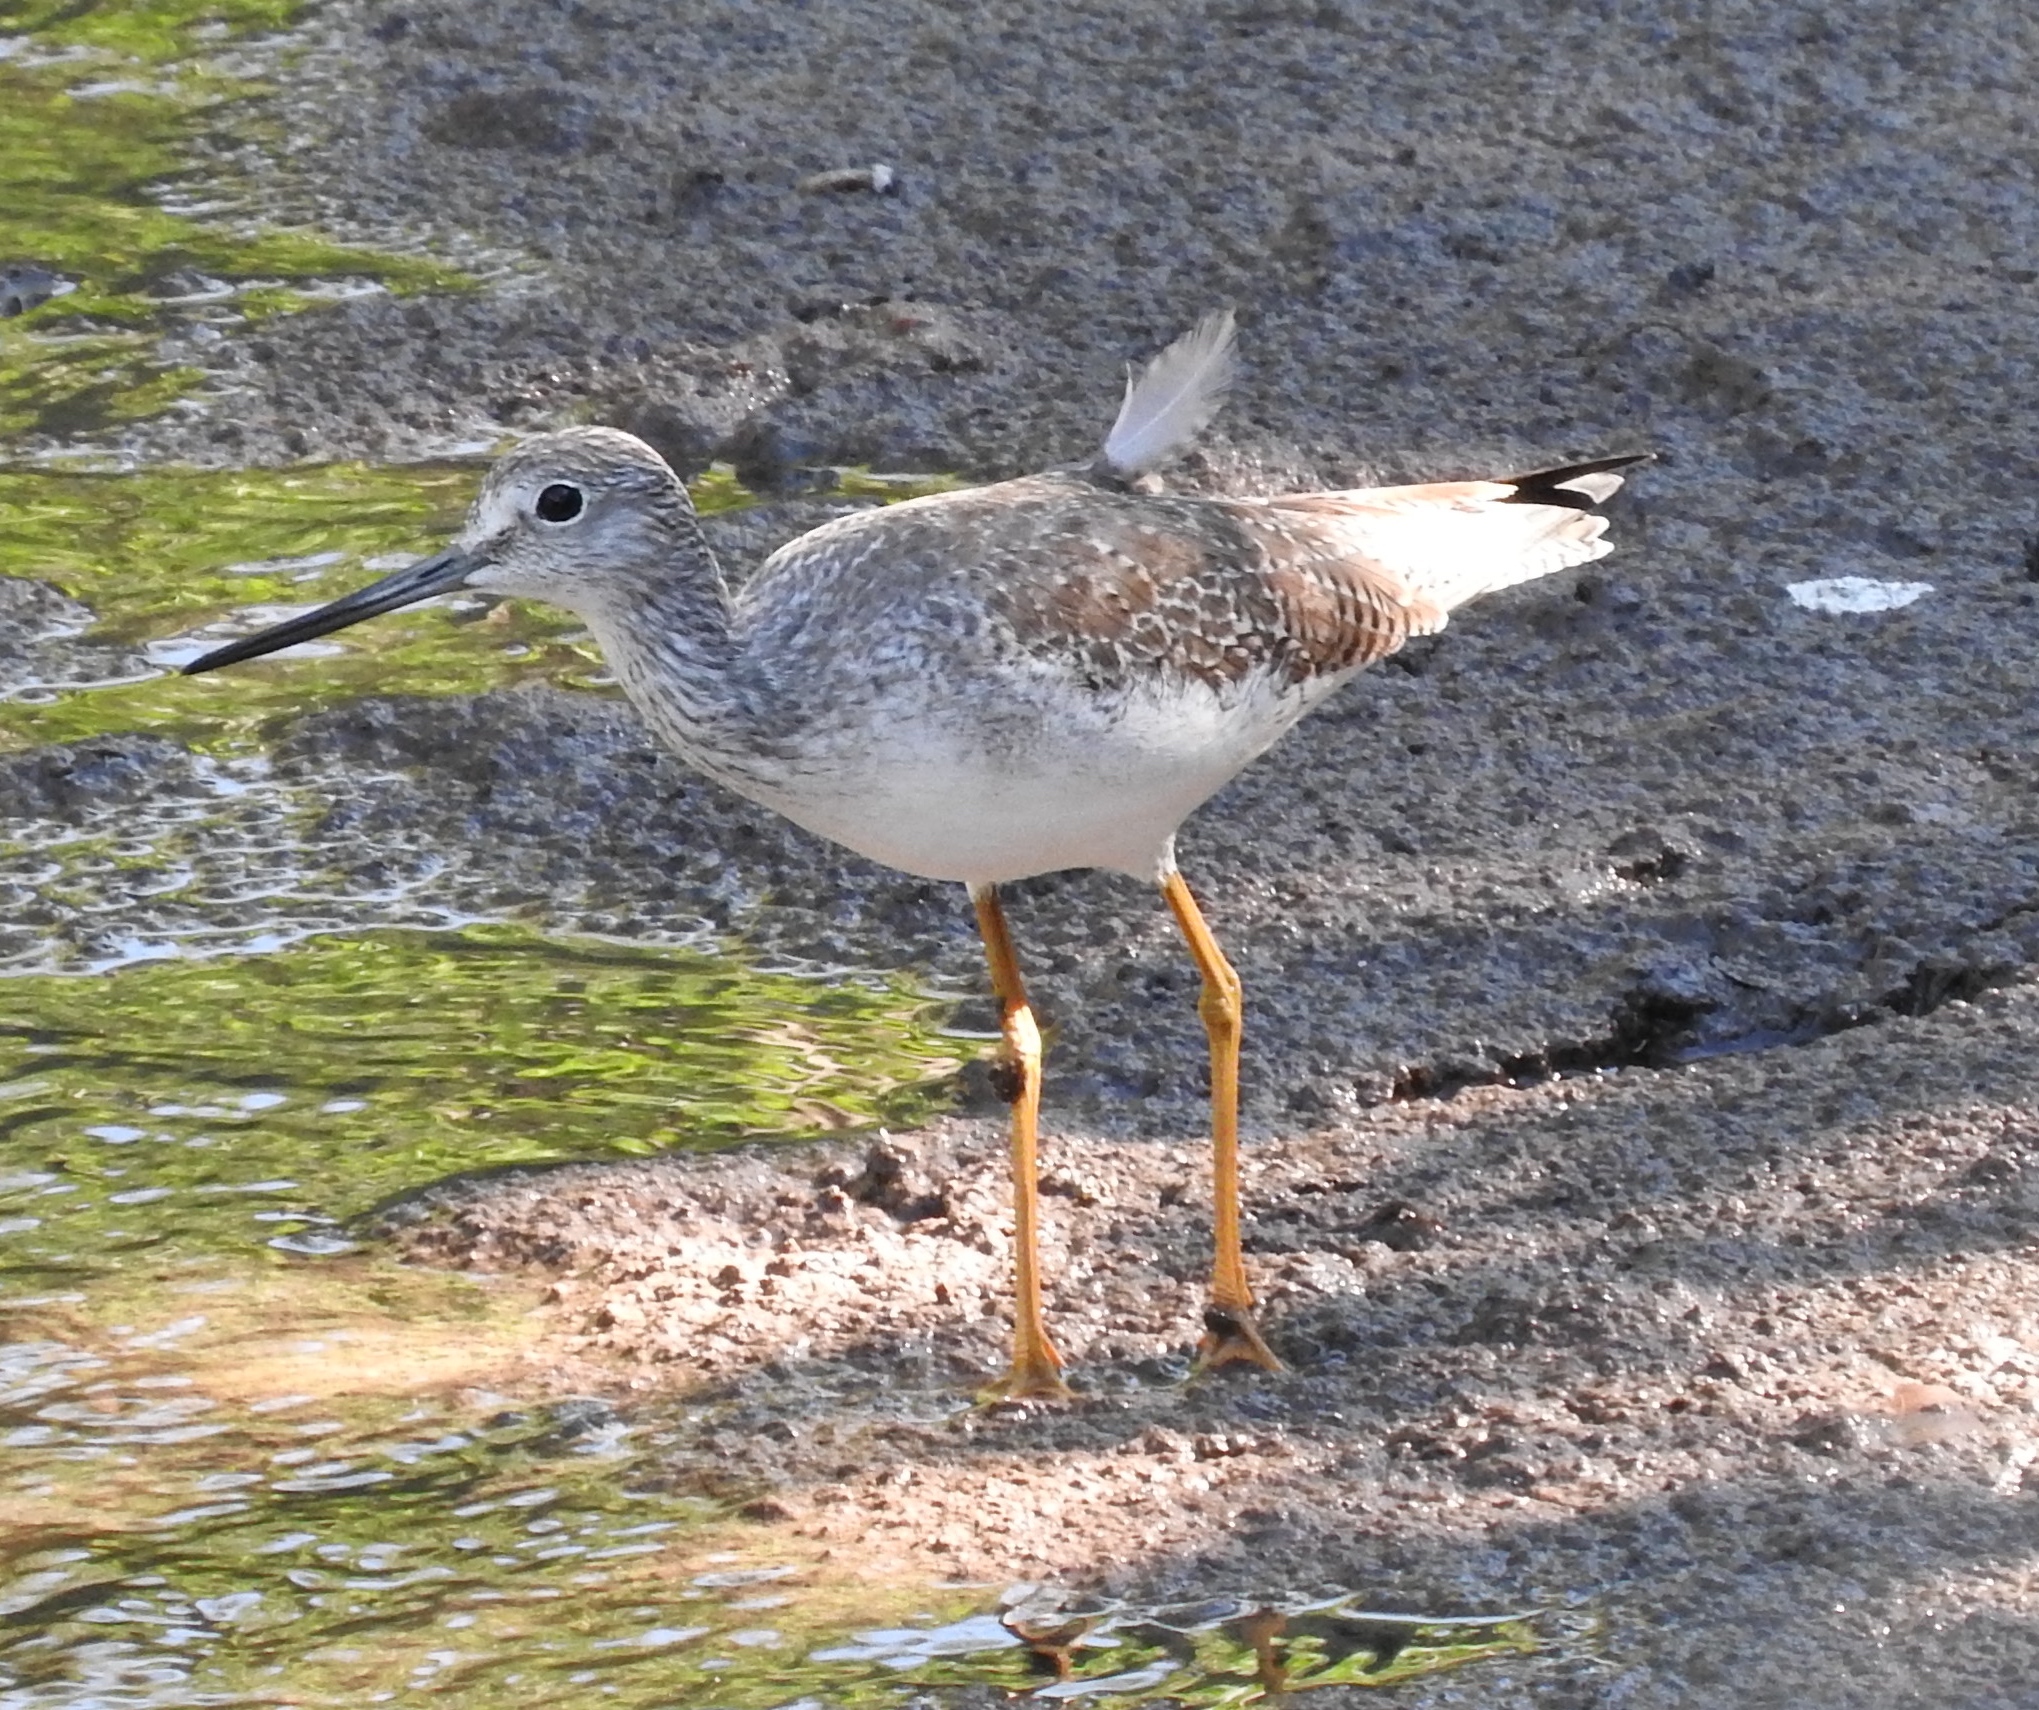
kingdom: Animalia
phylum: Chordata
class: Aves
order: Charadriiformes
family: Scolopacidae
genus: Tringa
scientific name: Tringa melanoleuca
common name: Greater yellowlegs
